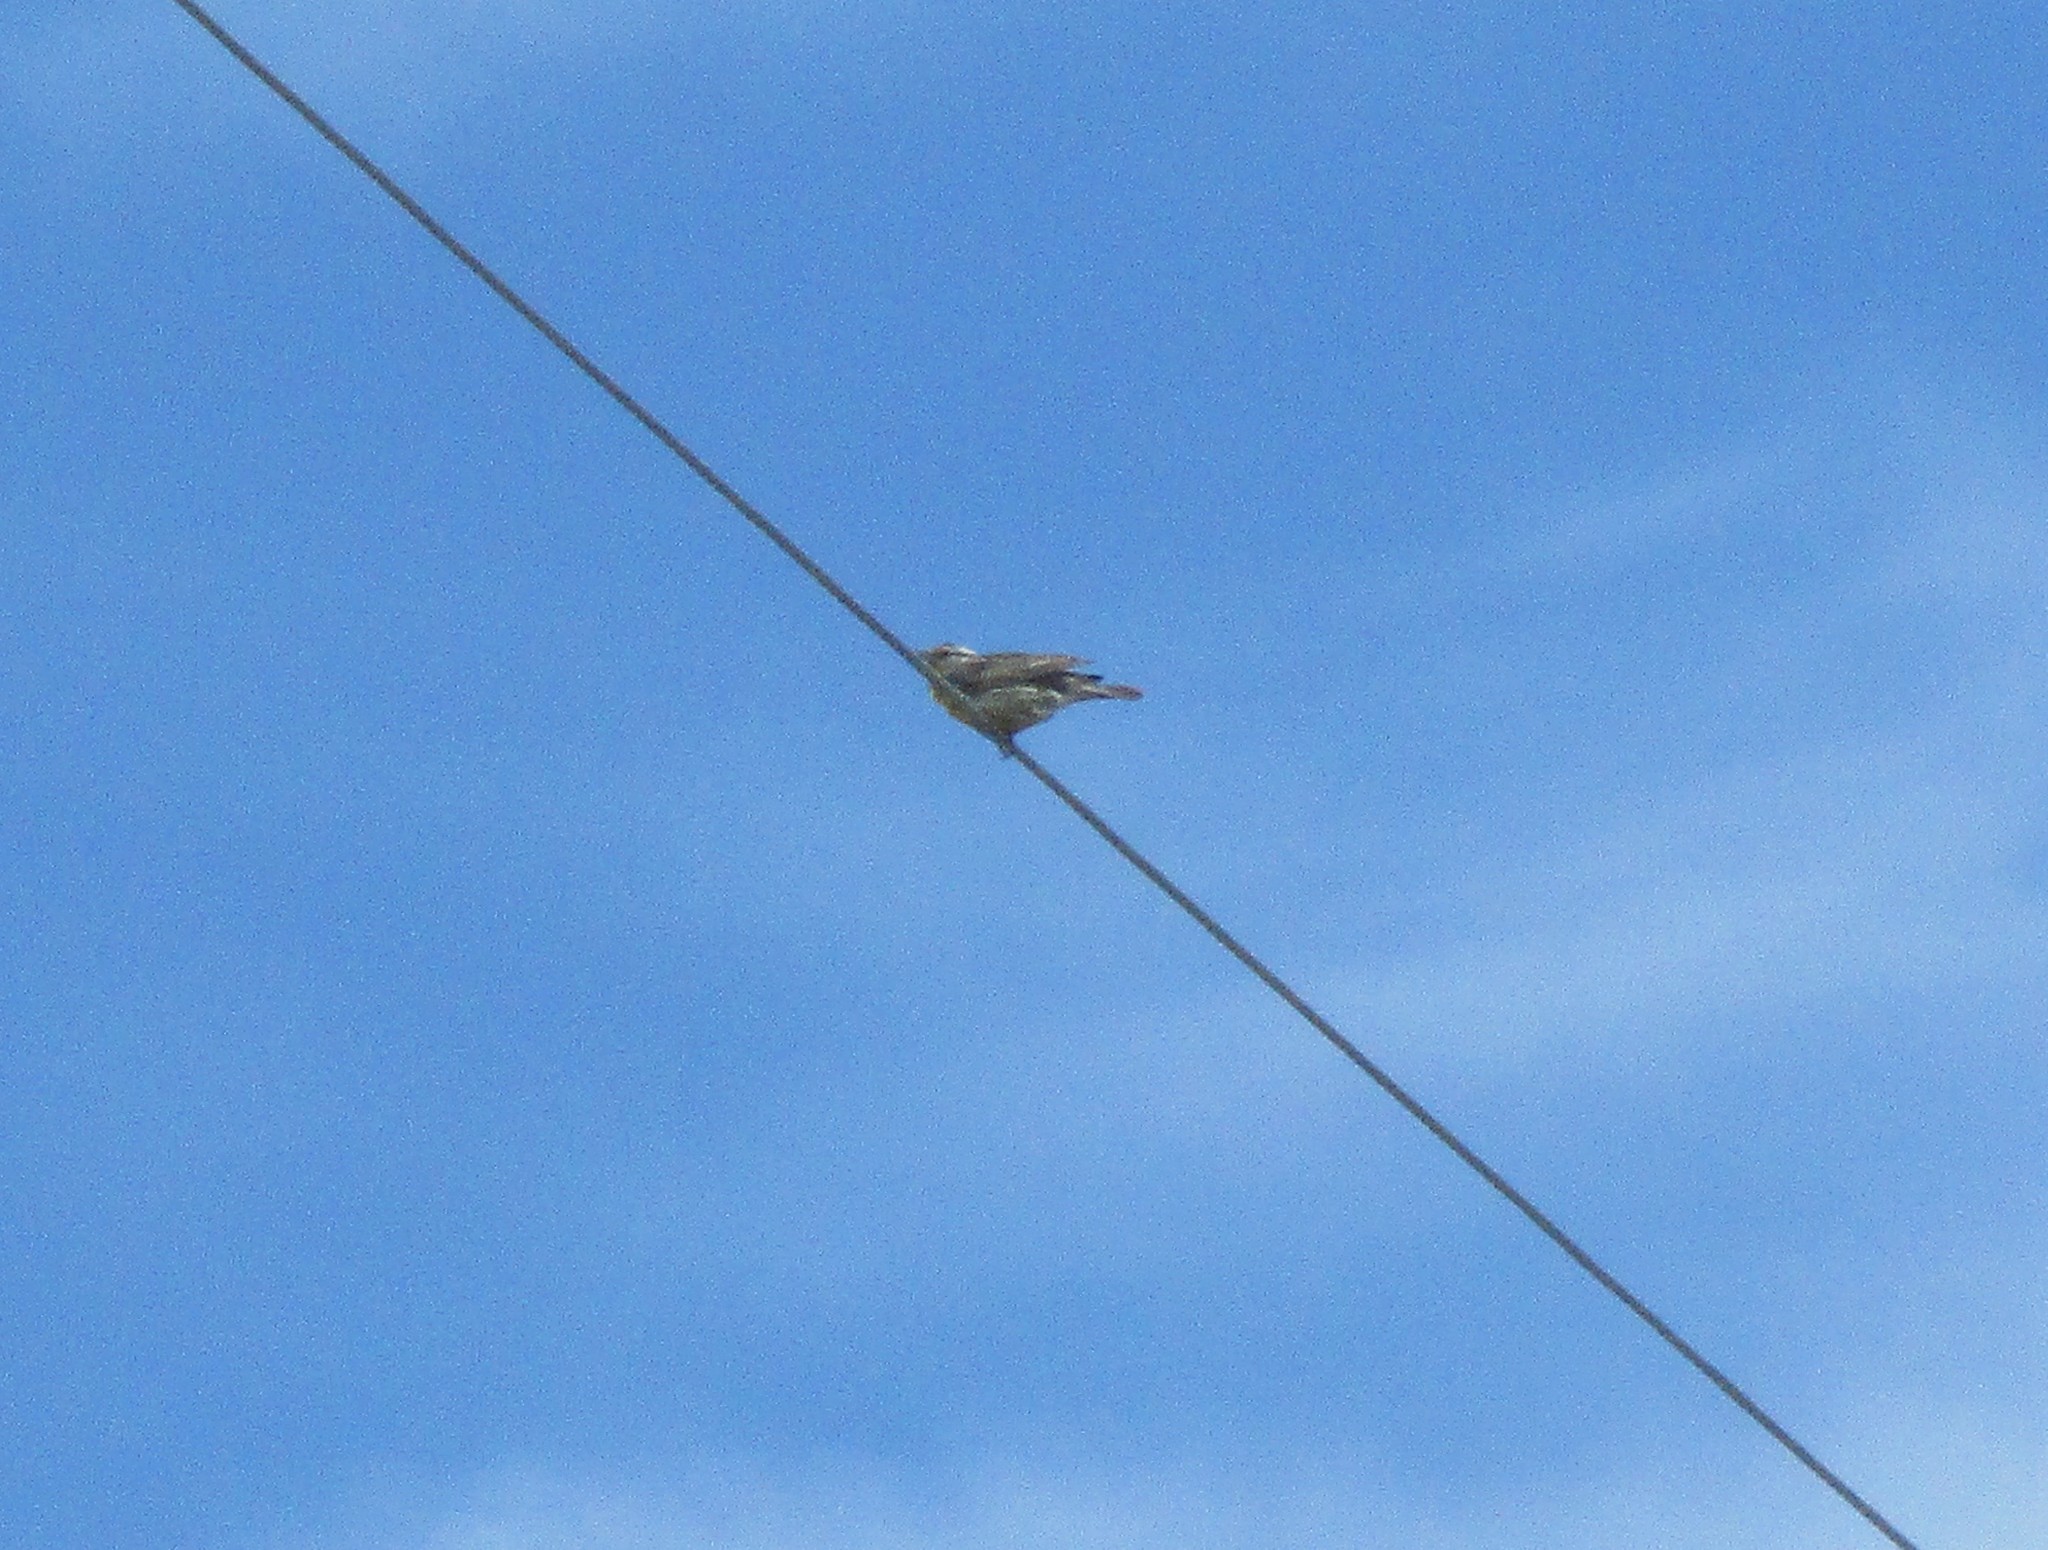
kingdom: Animalia
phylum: Chordata
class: Aves
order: Passeriformes
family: Icteridae
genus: Sturnella
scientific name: Sturnella neglecta
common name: Western meadowlark
